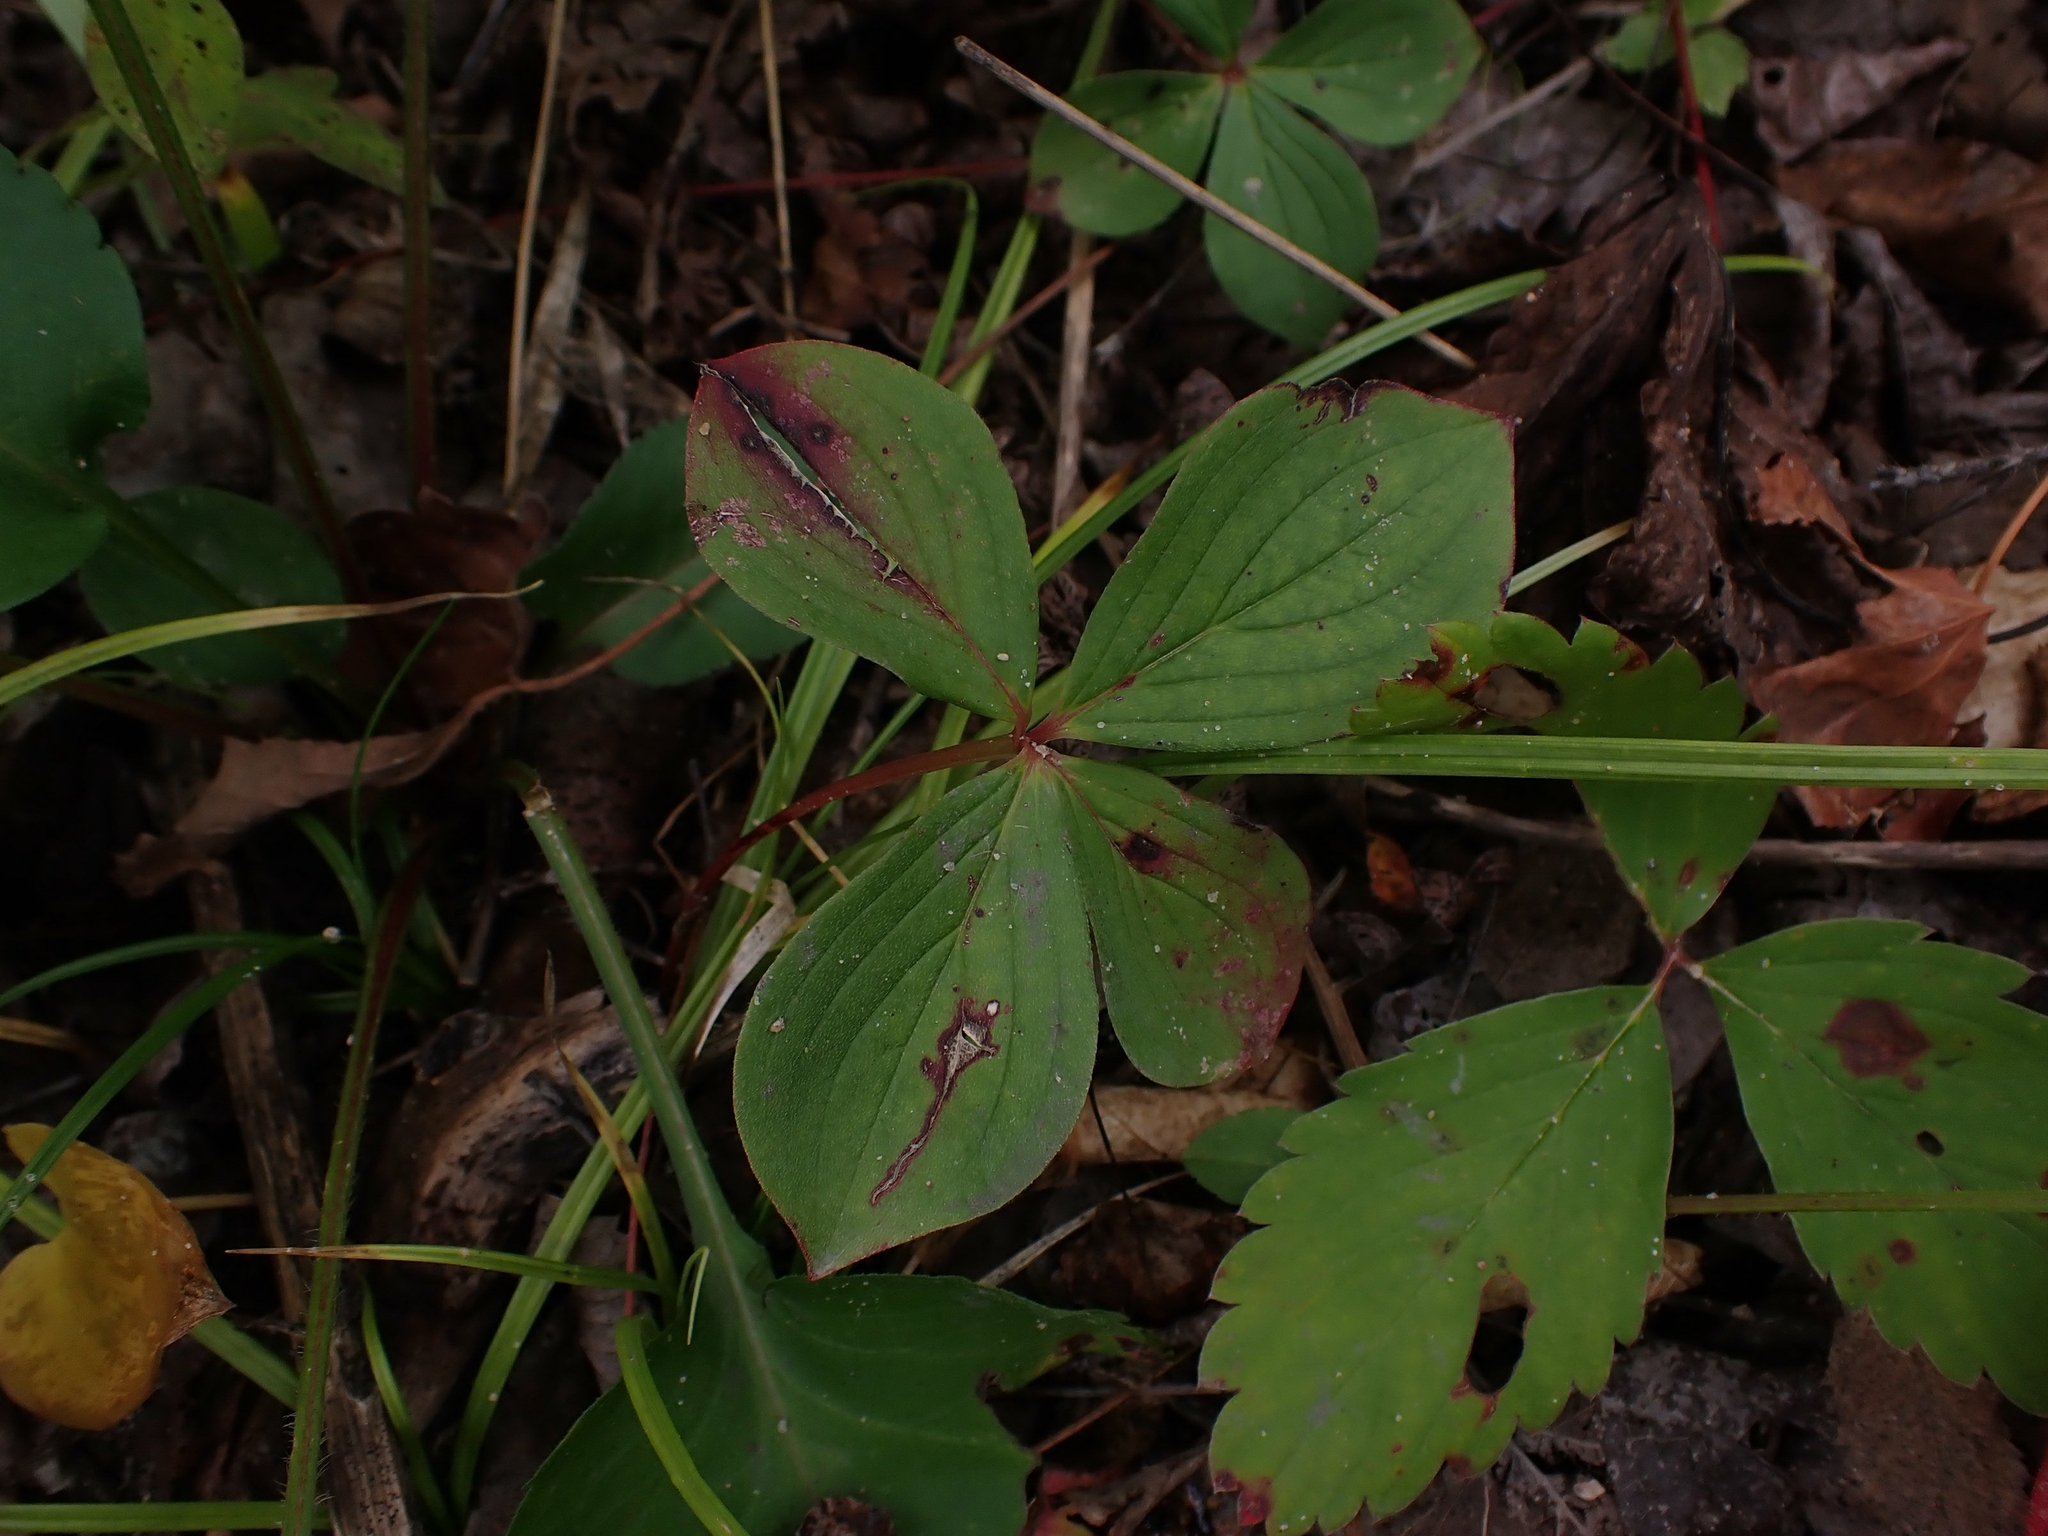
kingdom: Plantae
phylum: Tracheophyta
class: Magnoliopsida
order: Cornales
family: Cornaceae
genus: Cornus
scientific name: Cornus canadensis
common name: Creeping dogwood
